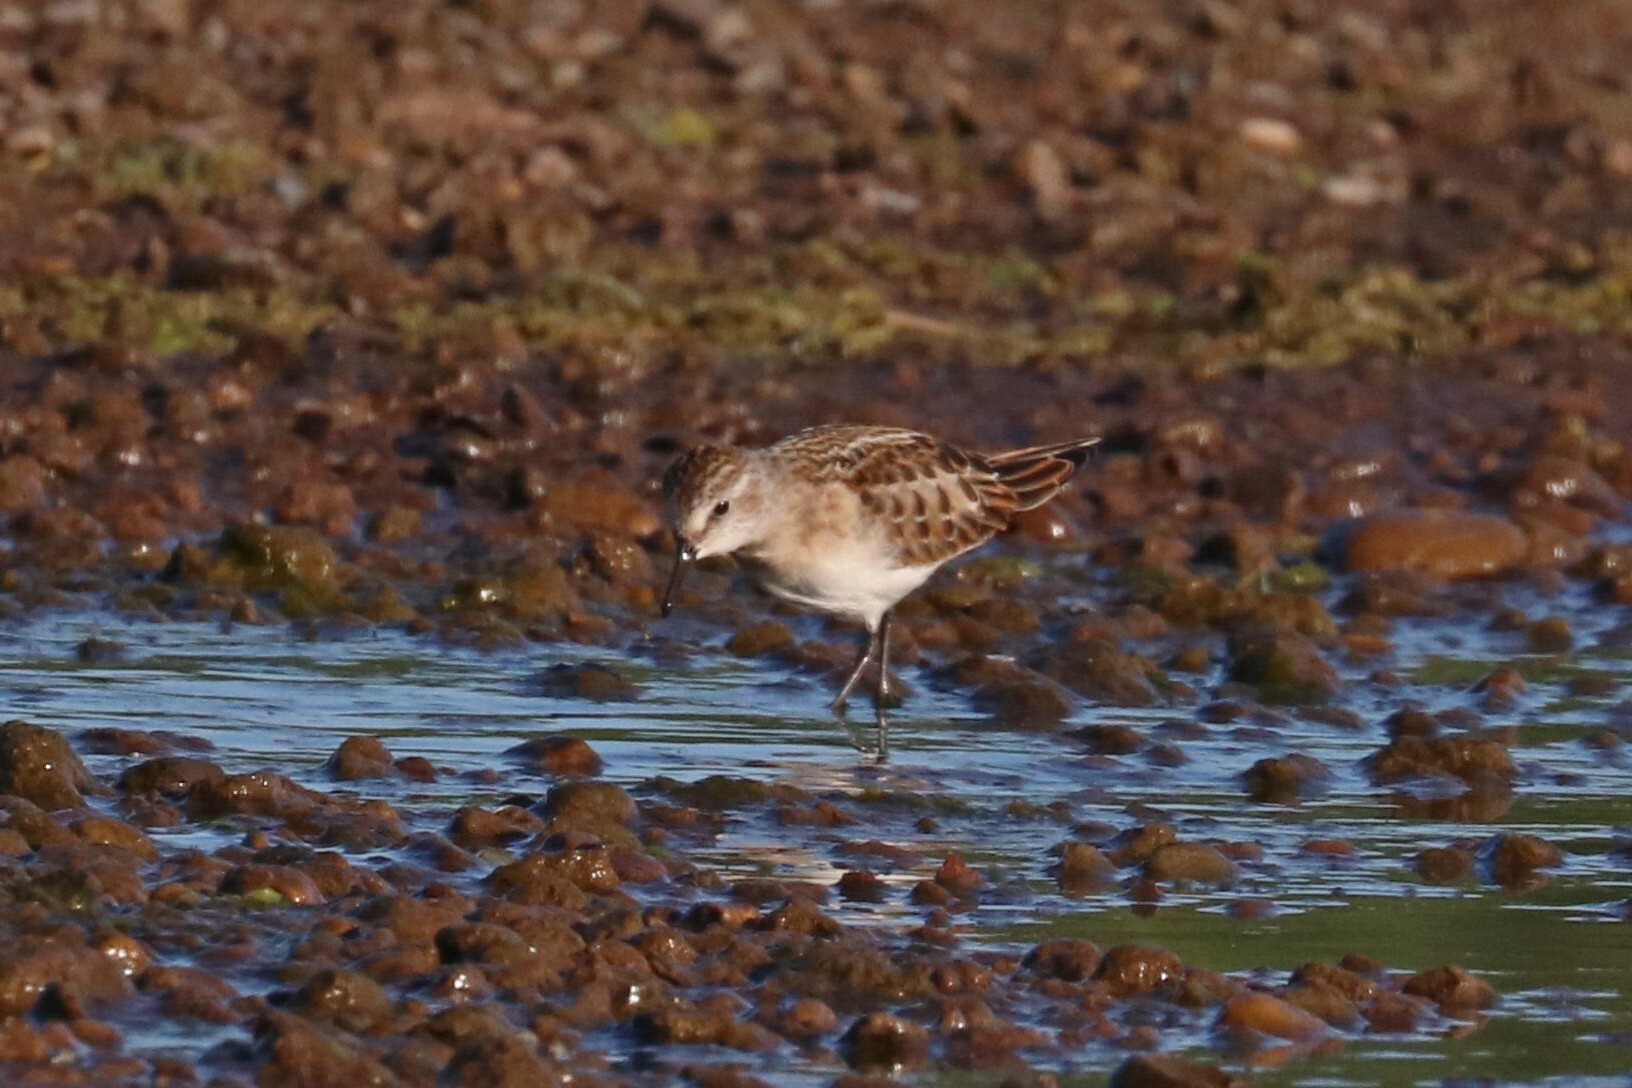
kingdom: Animalia
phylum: Chordata
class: Aves
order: Charadriiformes
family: Scolopacidae
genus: Calidris
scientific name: Calidris minuta
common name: Little stint
